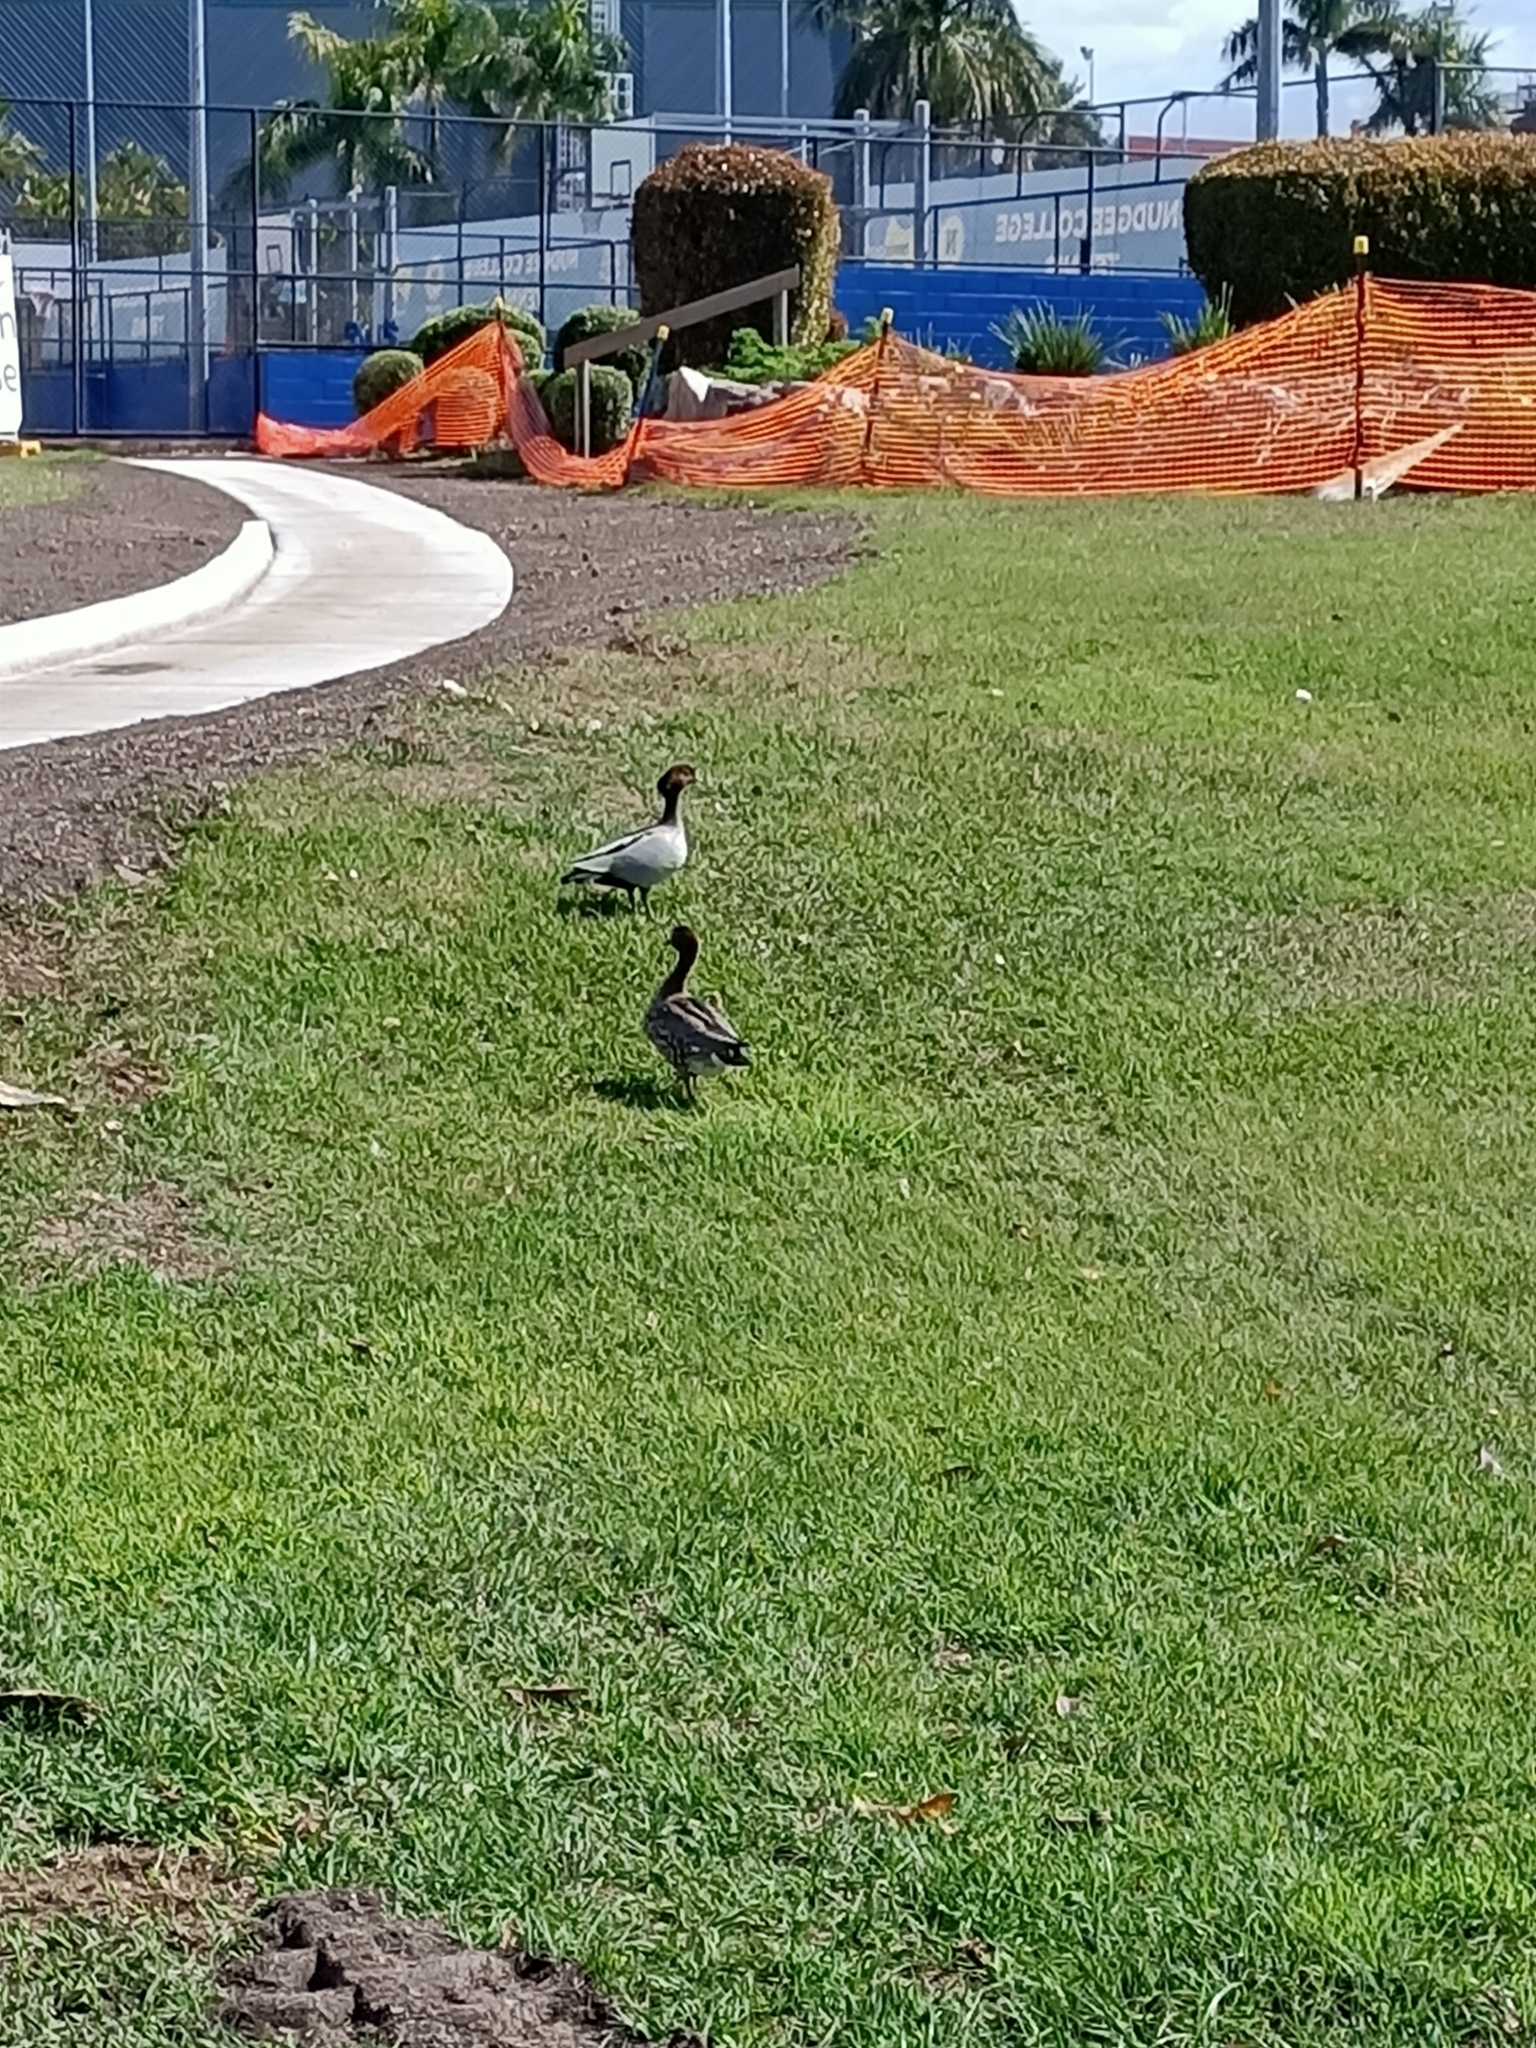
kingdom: Animalia
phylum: Chordata
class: Aves
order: Anseriformes
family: Anatidae
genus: Chenonetta
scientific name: Chenonetta jubata
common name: Maned duck
